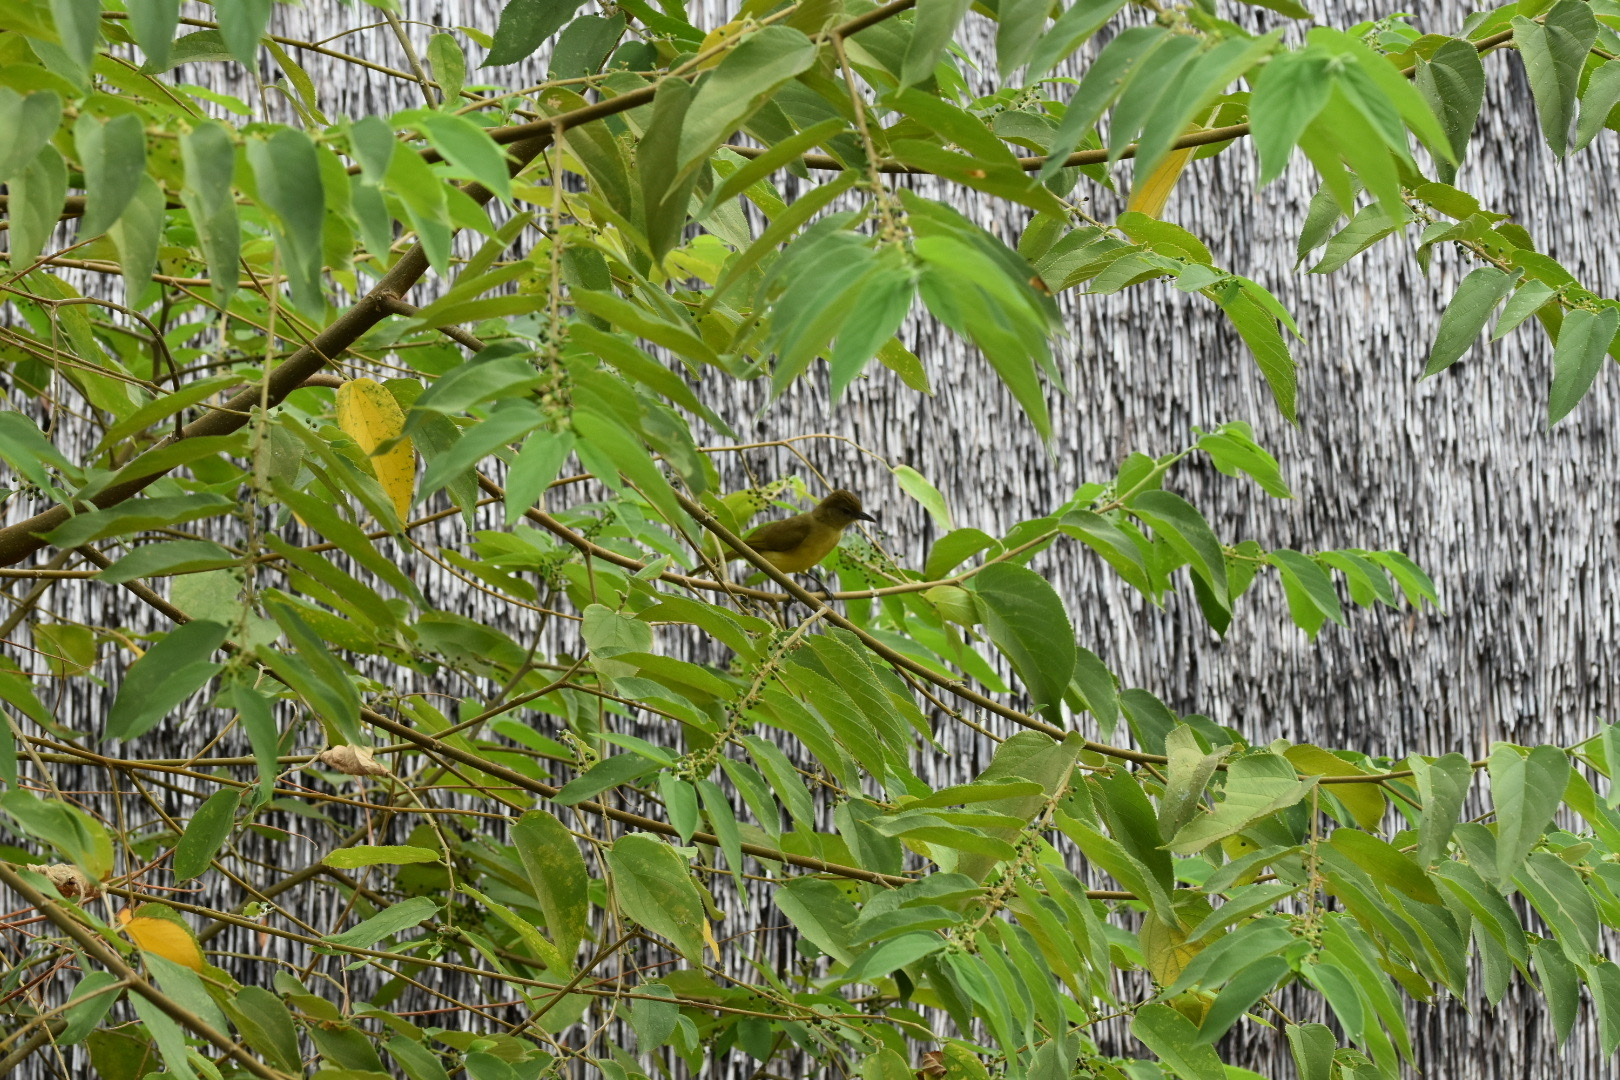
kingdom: Animalia
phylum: Chordata
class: Aves
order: Passeriformes
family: Pycnonotidae
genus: Chlorocichla
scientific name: Chlorocichla flaviventris
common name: Yellow-bellied greenbul
